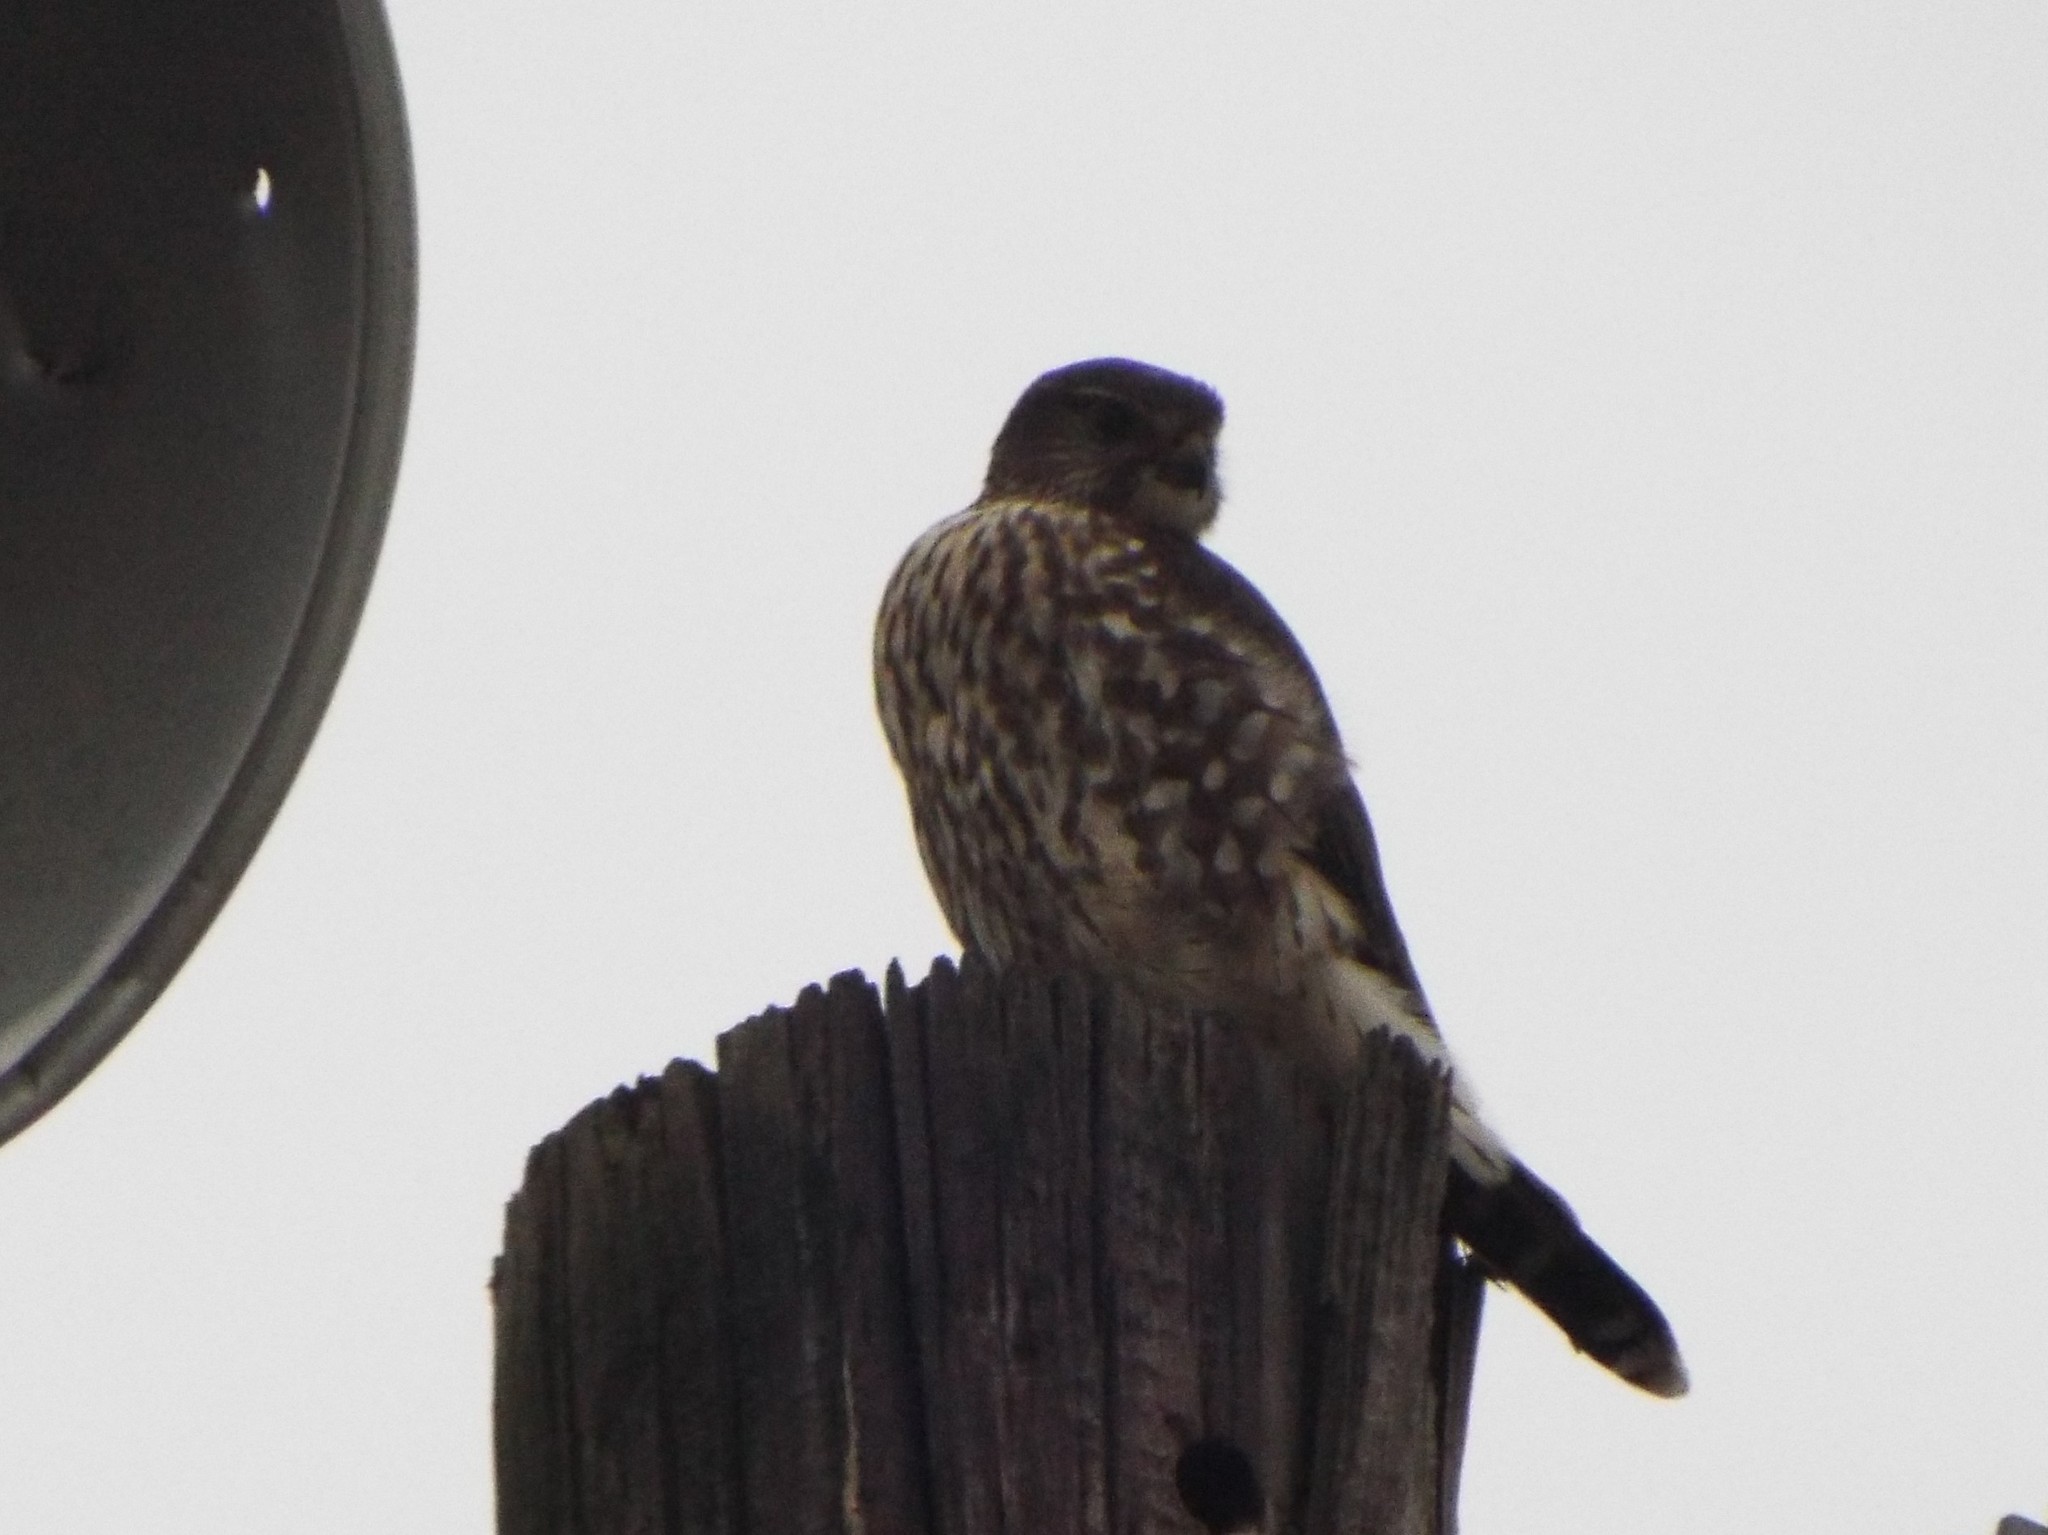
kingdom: Animalia
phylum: Chordata
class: Aves
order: Falconiformes
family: Falconidae
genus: Falco
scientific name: Falco columbarius
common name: Merlin
